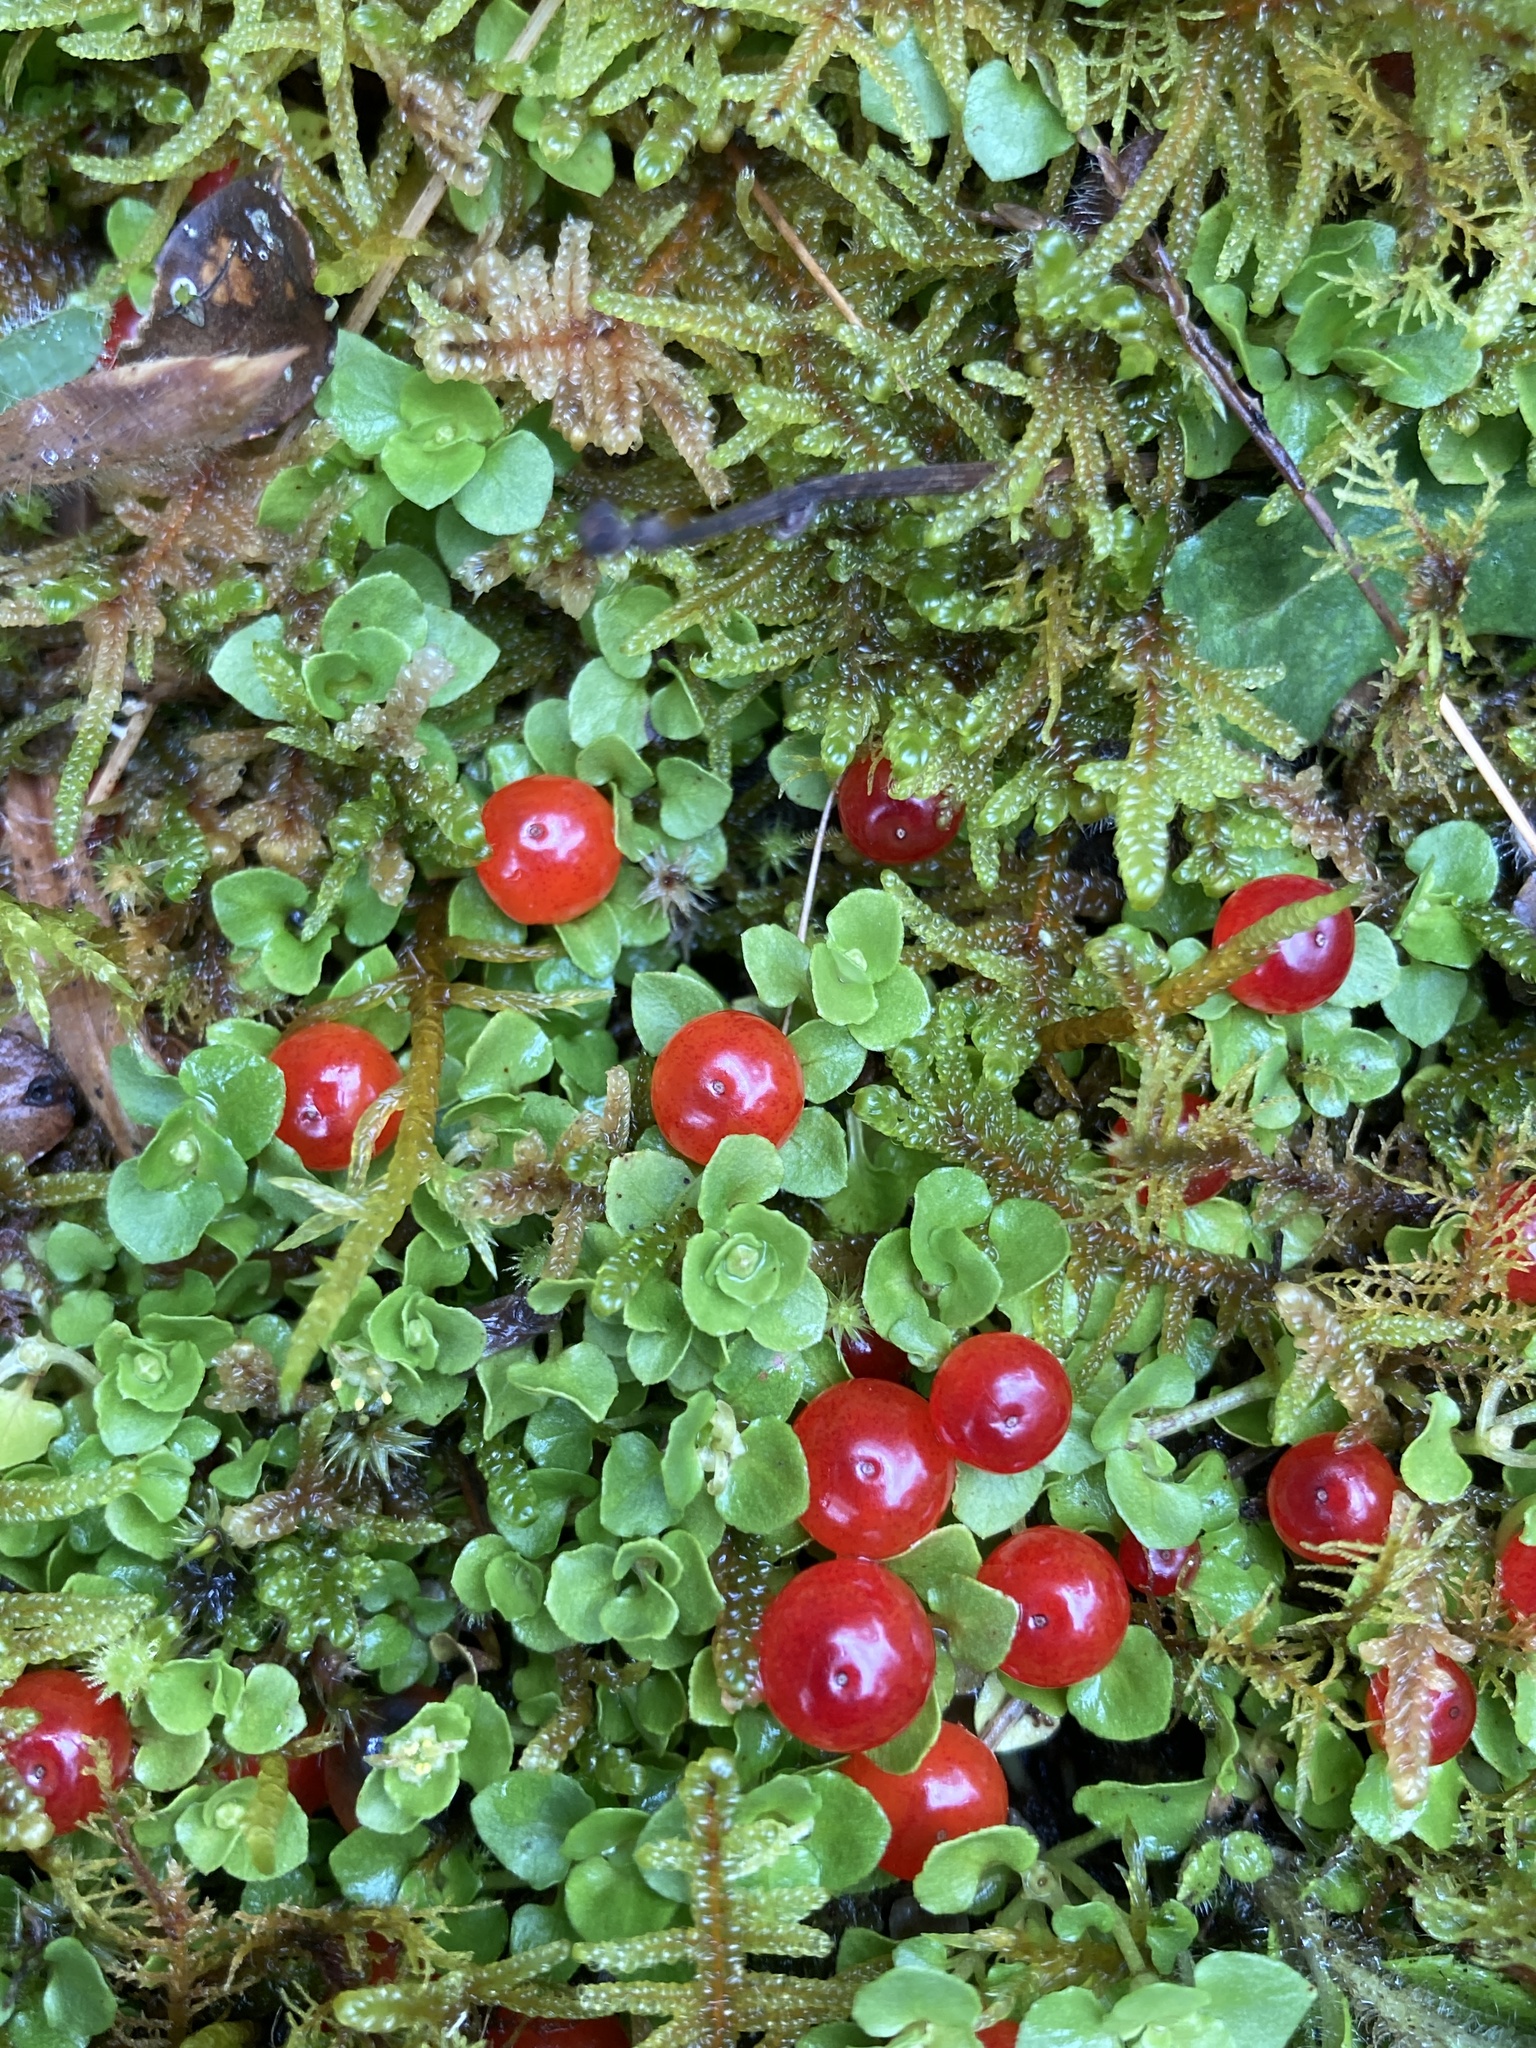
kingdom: Plantae
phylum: Tracheophyta
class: Magnoliopsida
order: Gentianales
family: Rubiaceae
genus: Nertera
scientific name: Nertera granadensis
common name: Beadplant
